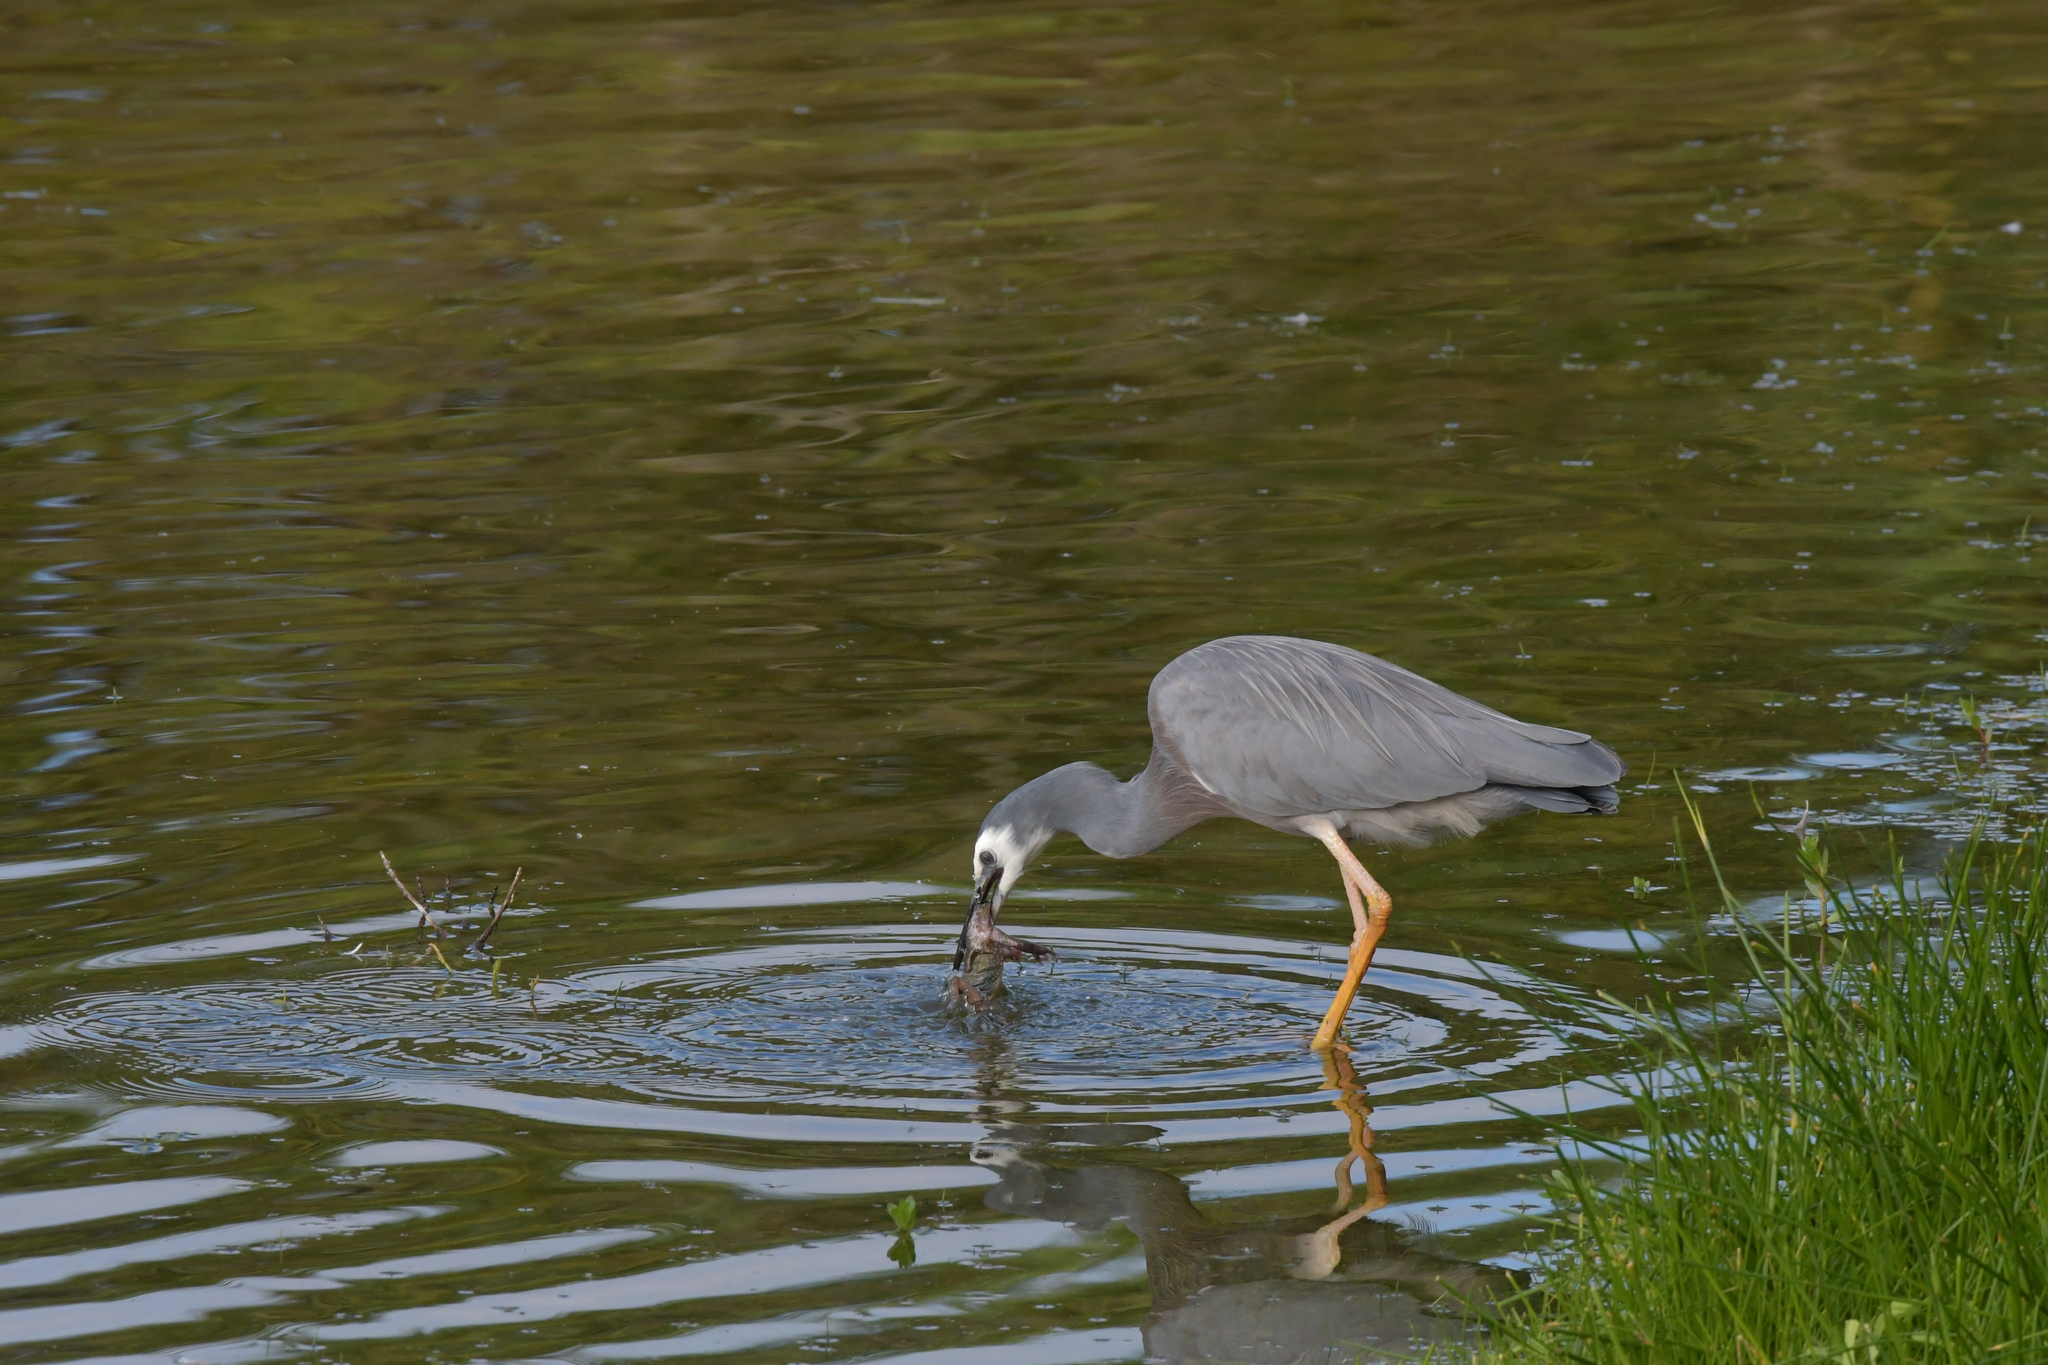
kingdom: Animalia
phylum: Chordata
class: Aves
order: Pelecaniformes
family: Ardeidae
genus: Egretta
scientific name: Egretta novaehollandiae
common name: White-faced heron
